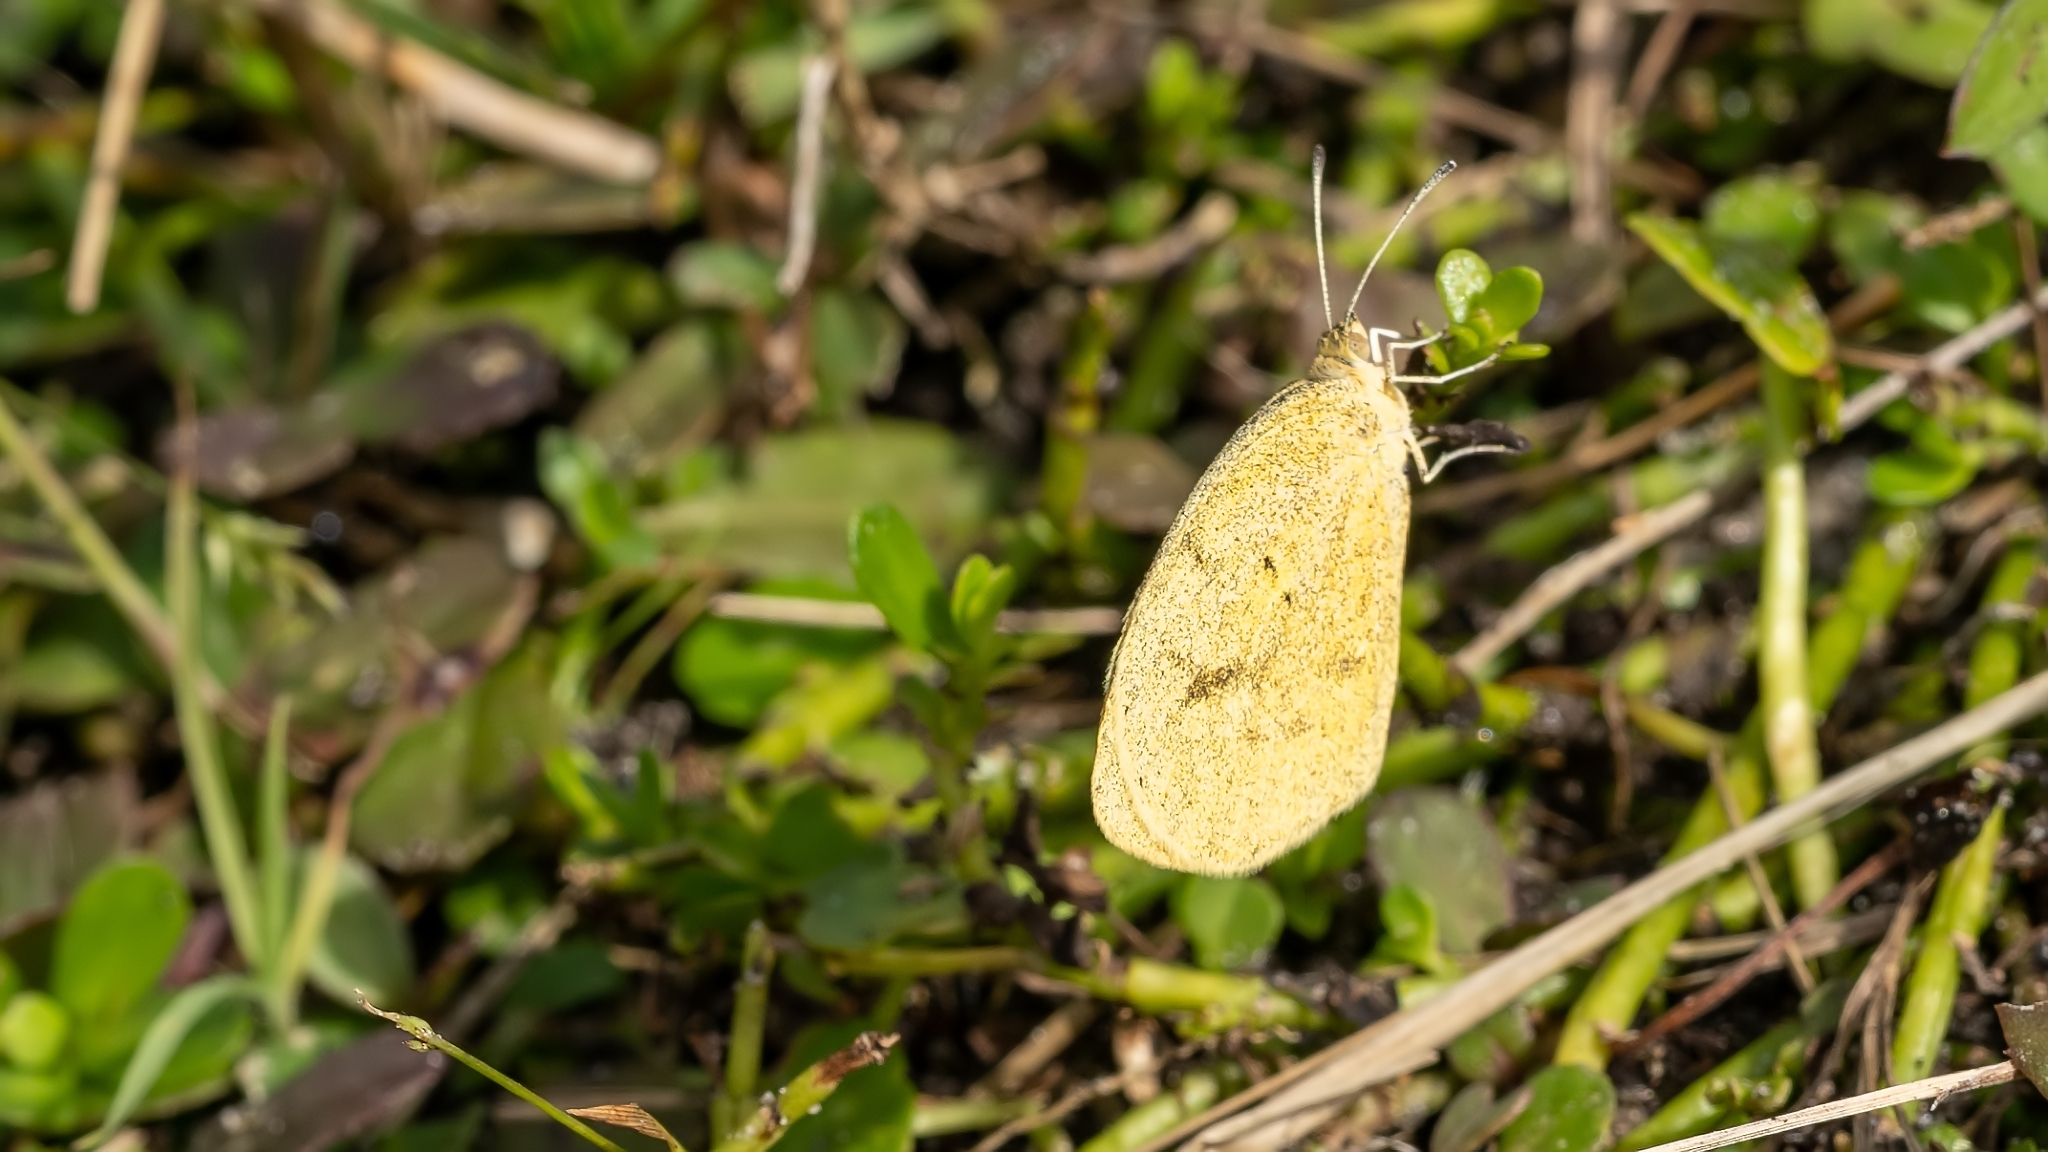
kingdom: Animalia
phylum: Arthropoda
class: Insecta
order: Lepidoptera
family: Pieridae
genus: Eurema
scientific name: Eurema daira
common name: Barred sulphur
